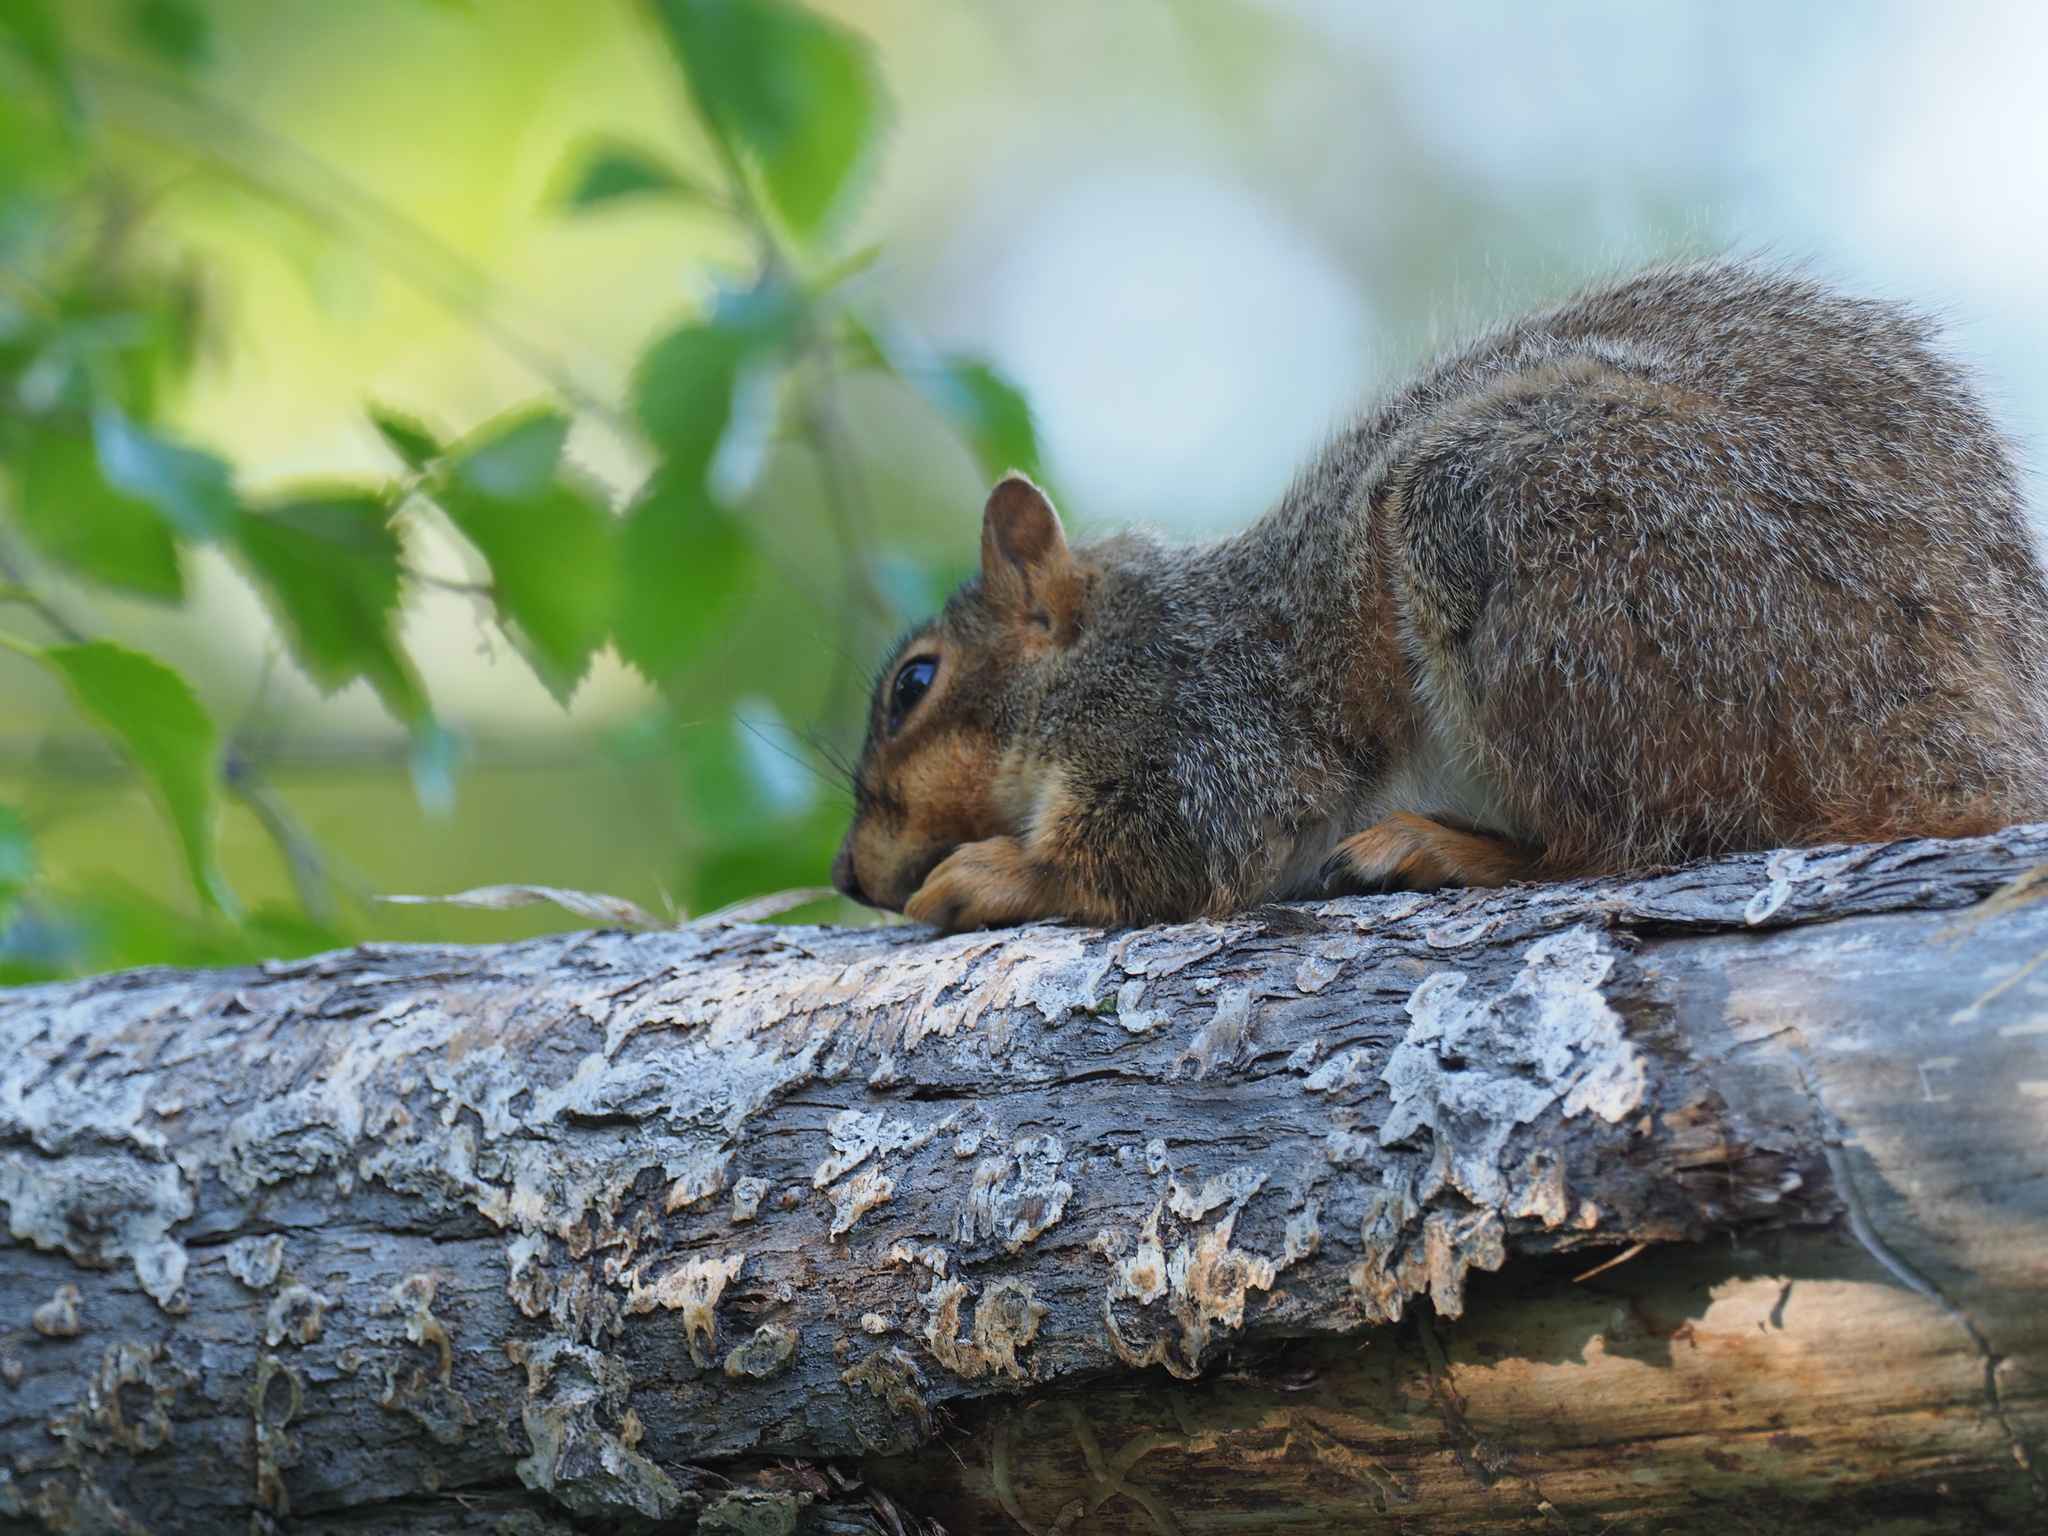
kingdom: Animalia
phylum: Chordata
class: Mammalia
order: Rodentia
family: Sciuridae
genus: Sciurus
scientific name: Sciurus niger
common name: Fox squirrel
